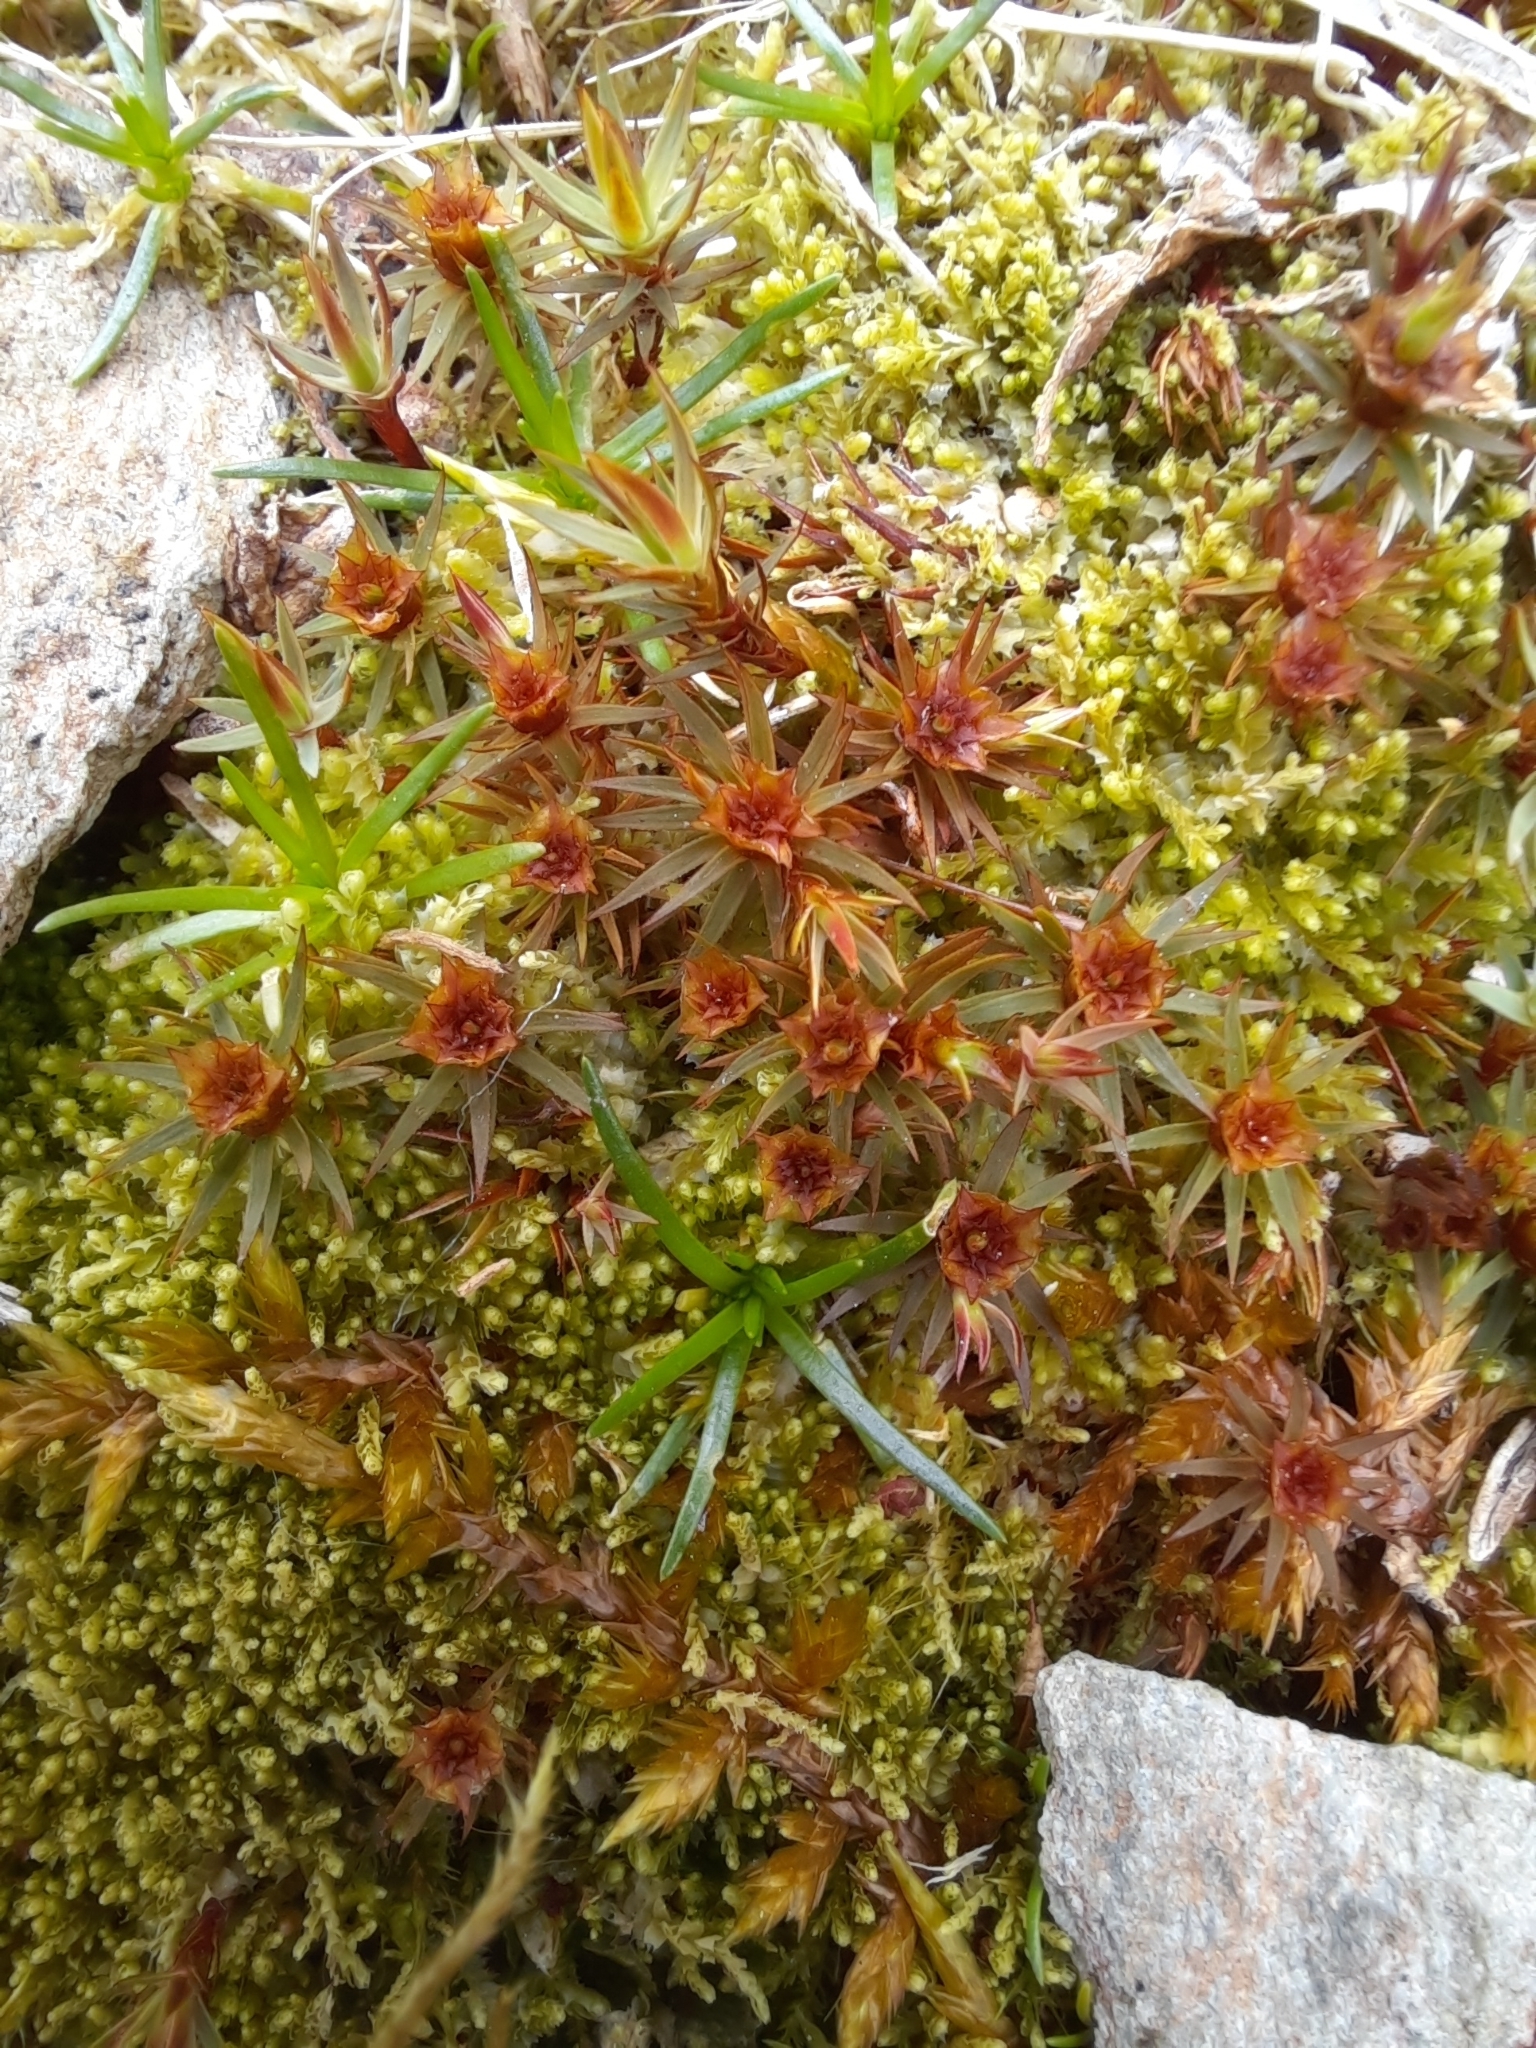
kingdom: Plantae
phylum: Bryophyta
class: Polytrichopsida
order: Polytrichales
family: Polytrichaceae
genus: Polytrichum
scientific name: Polytrichum juniperinum
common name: Juniper haircap moss
